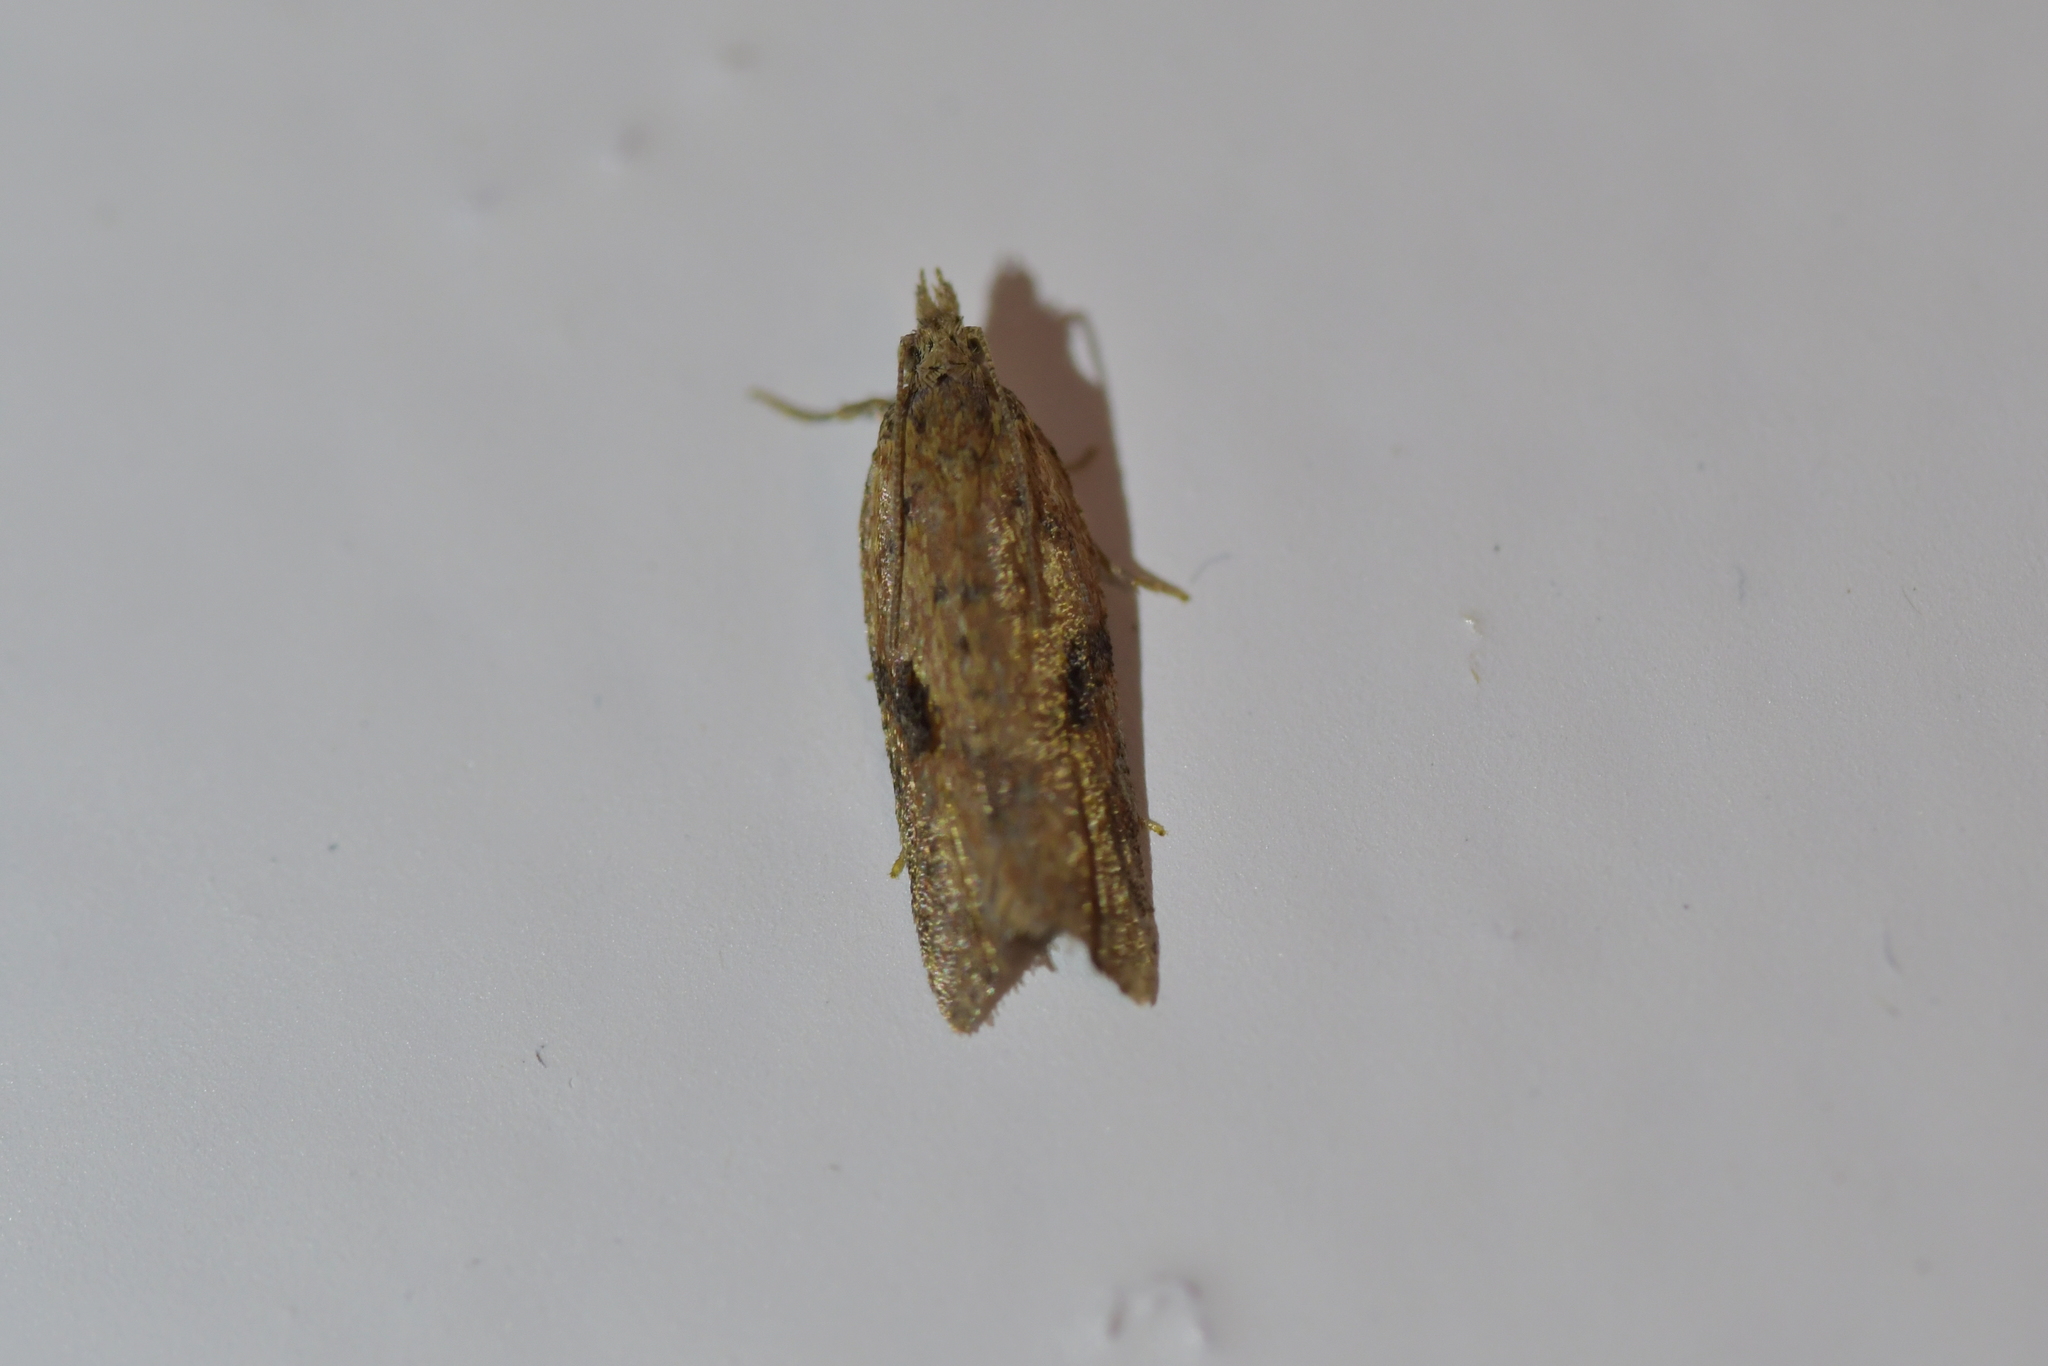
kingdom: Animalia
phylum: Arthropoda
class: Insecta
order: Lepidoptera
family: Tortricidae
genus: Capua
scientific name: Capua semiferana
